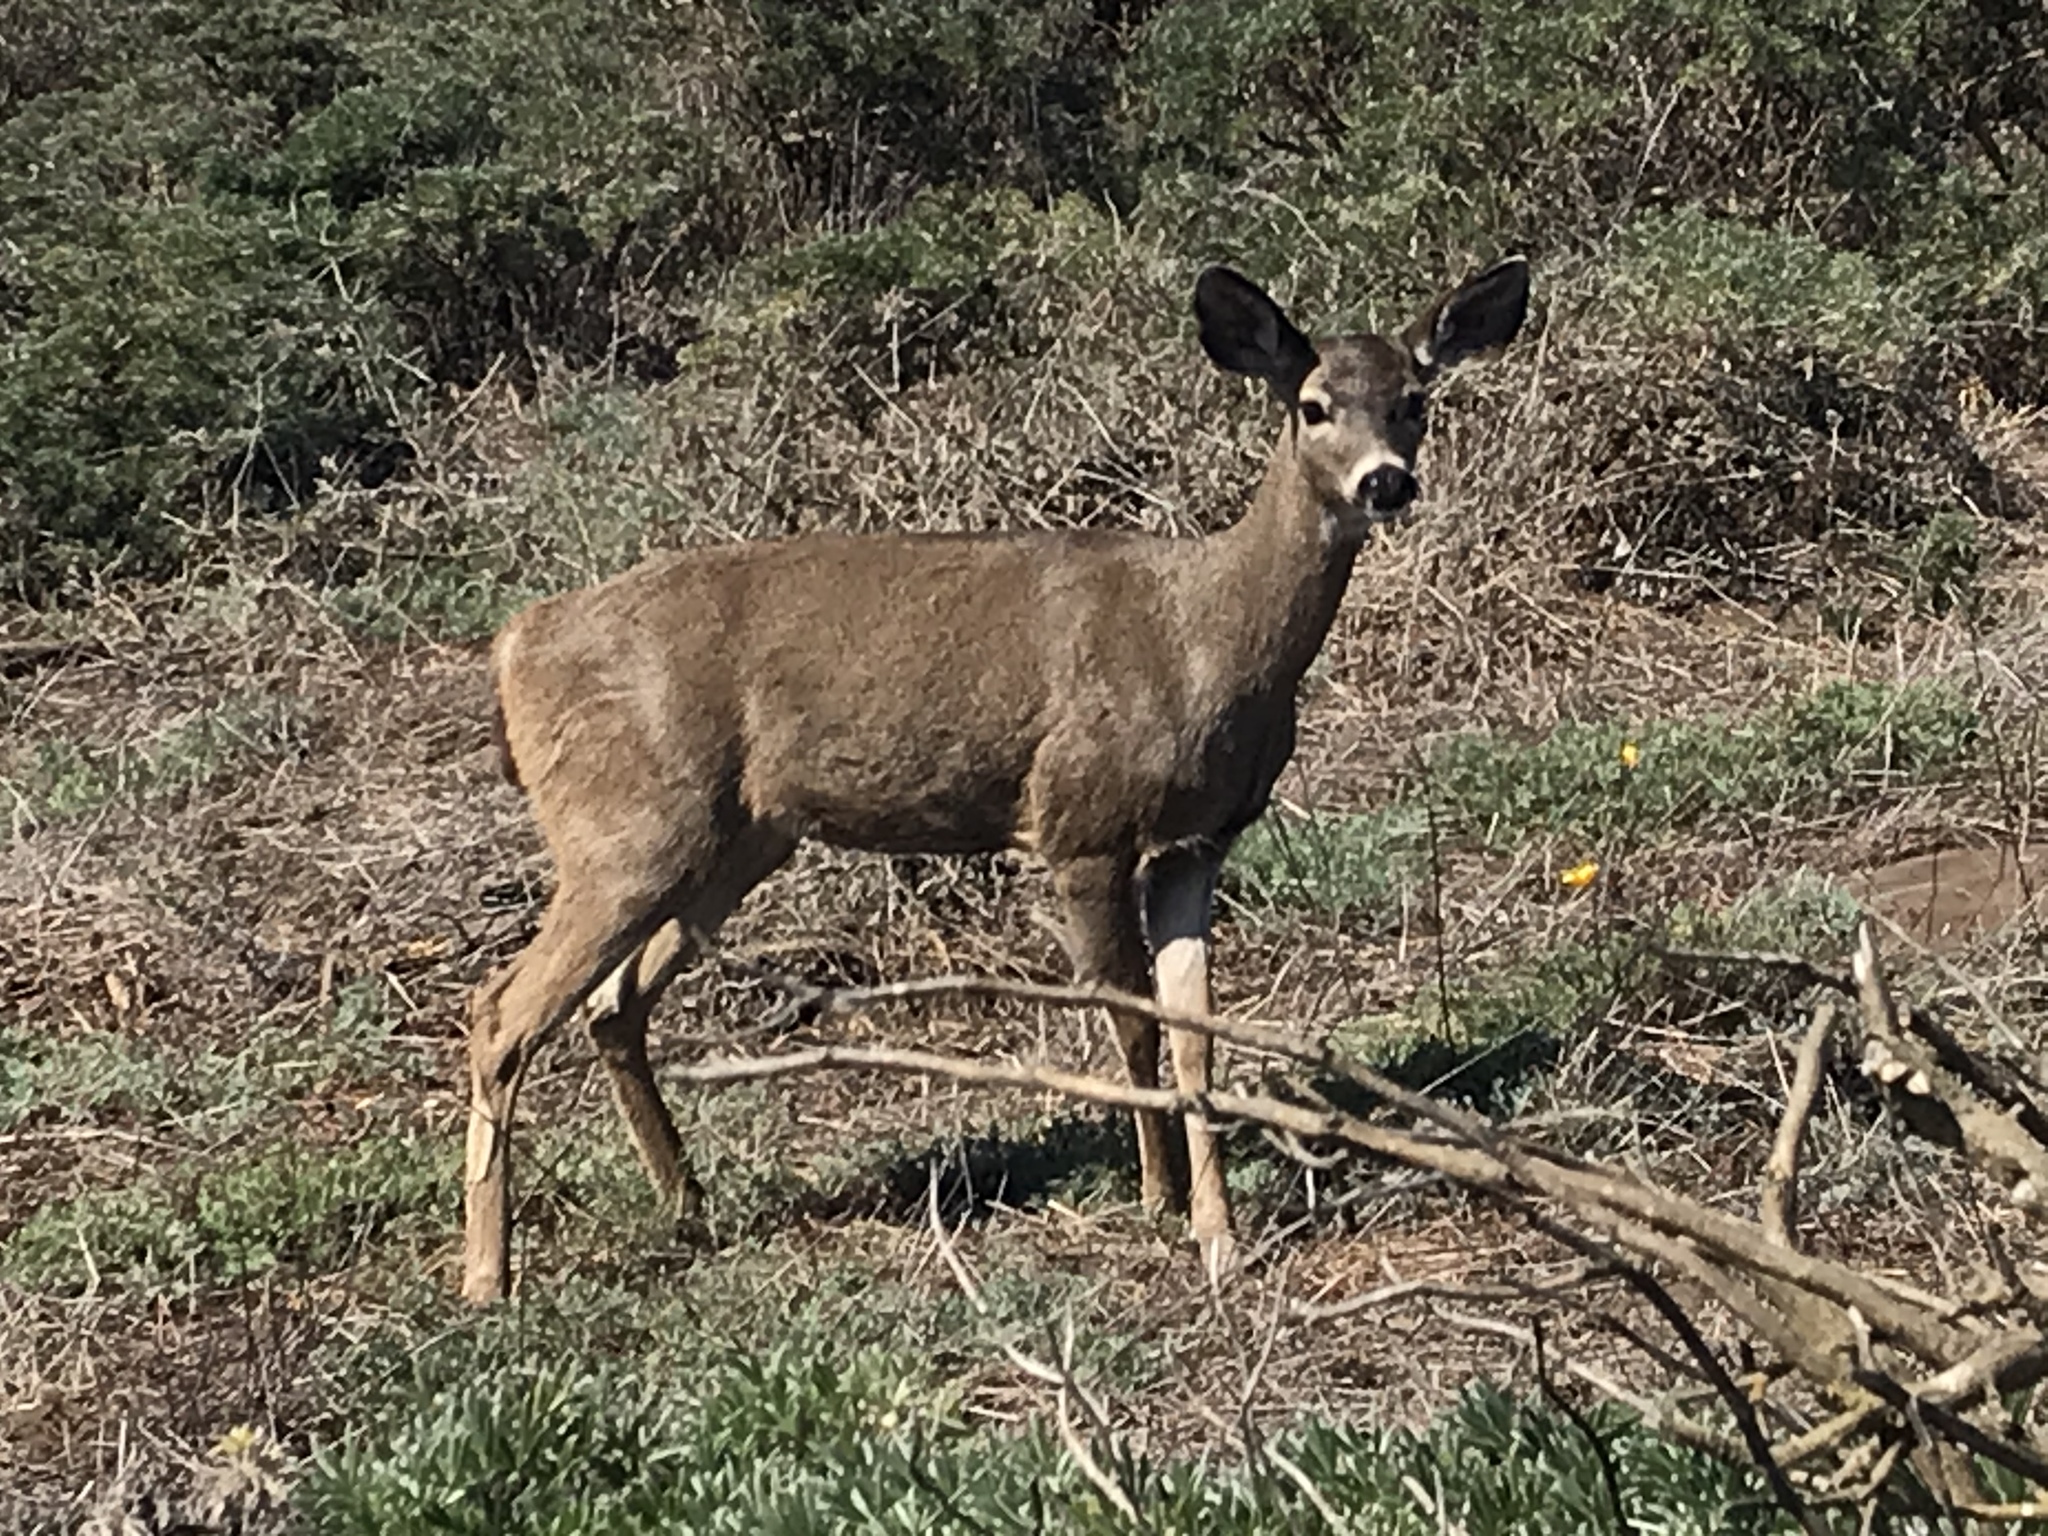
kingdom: Animalia
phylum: Chordata
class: Mammalia
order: Artiodactyla
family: Cervidae
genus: Odocoileus
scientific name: Odocoileus hemionus
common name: Mule deer
